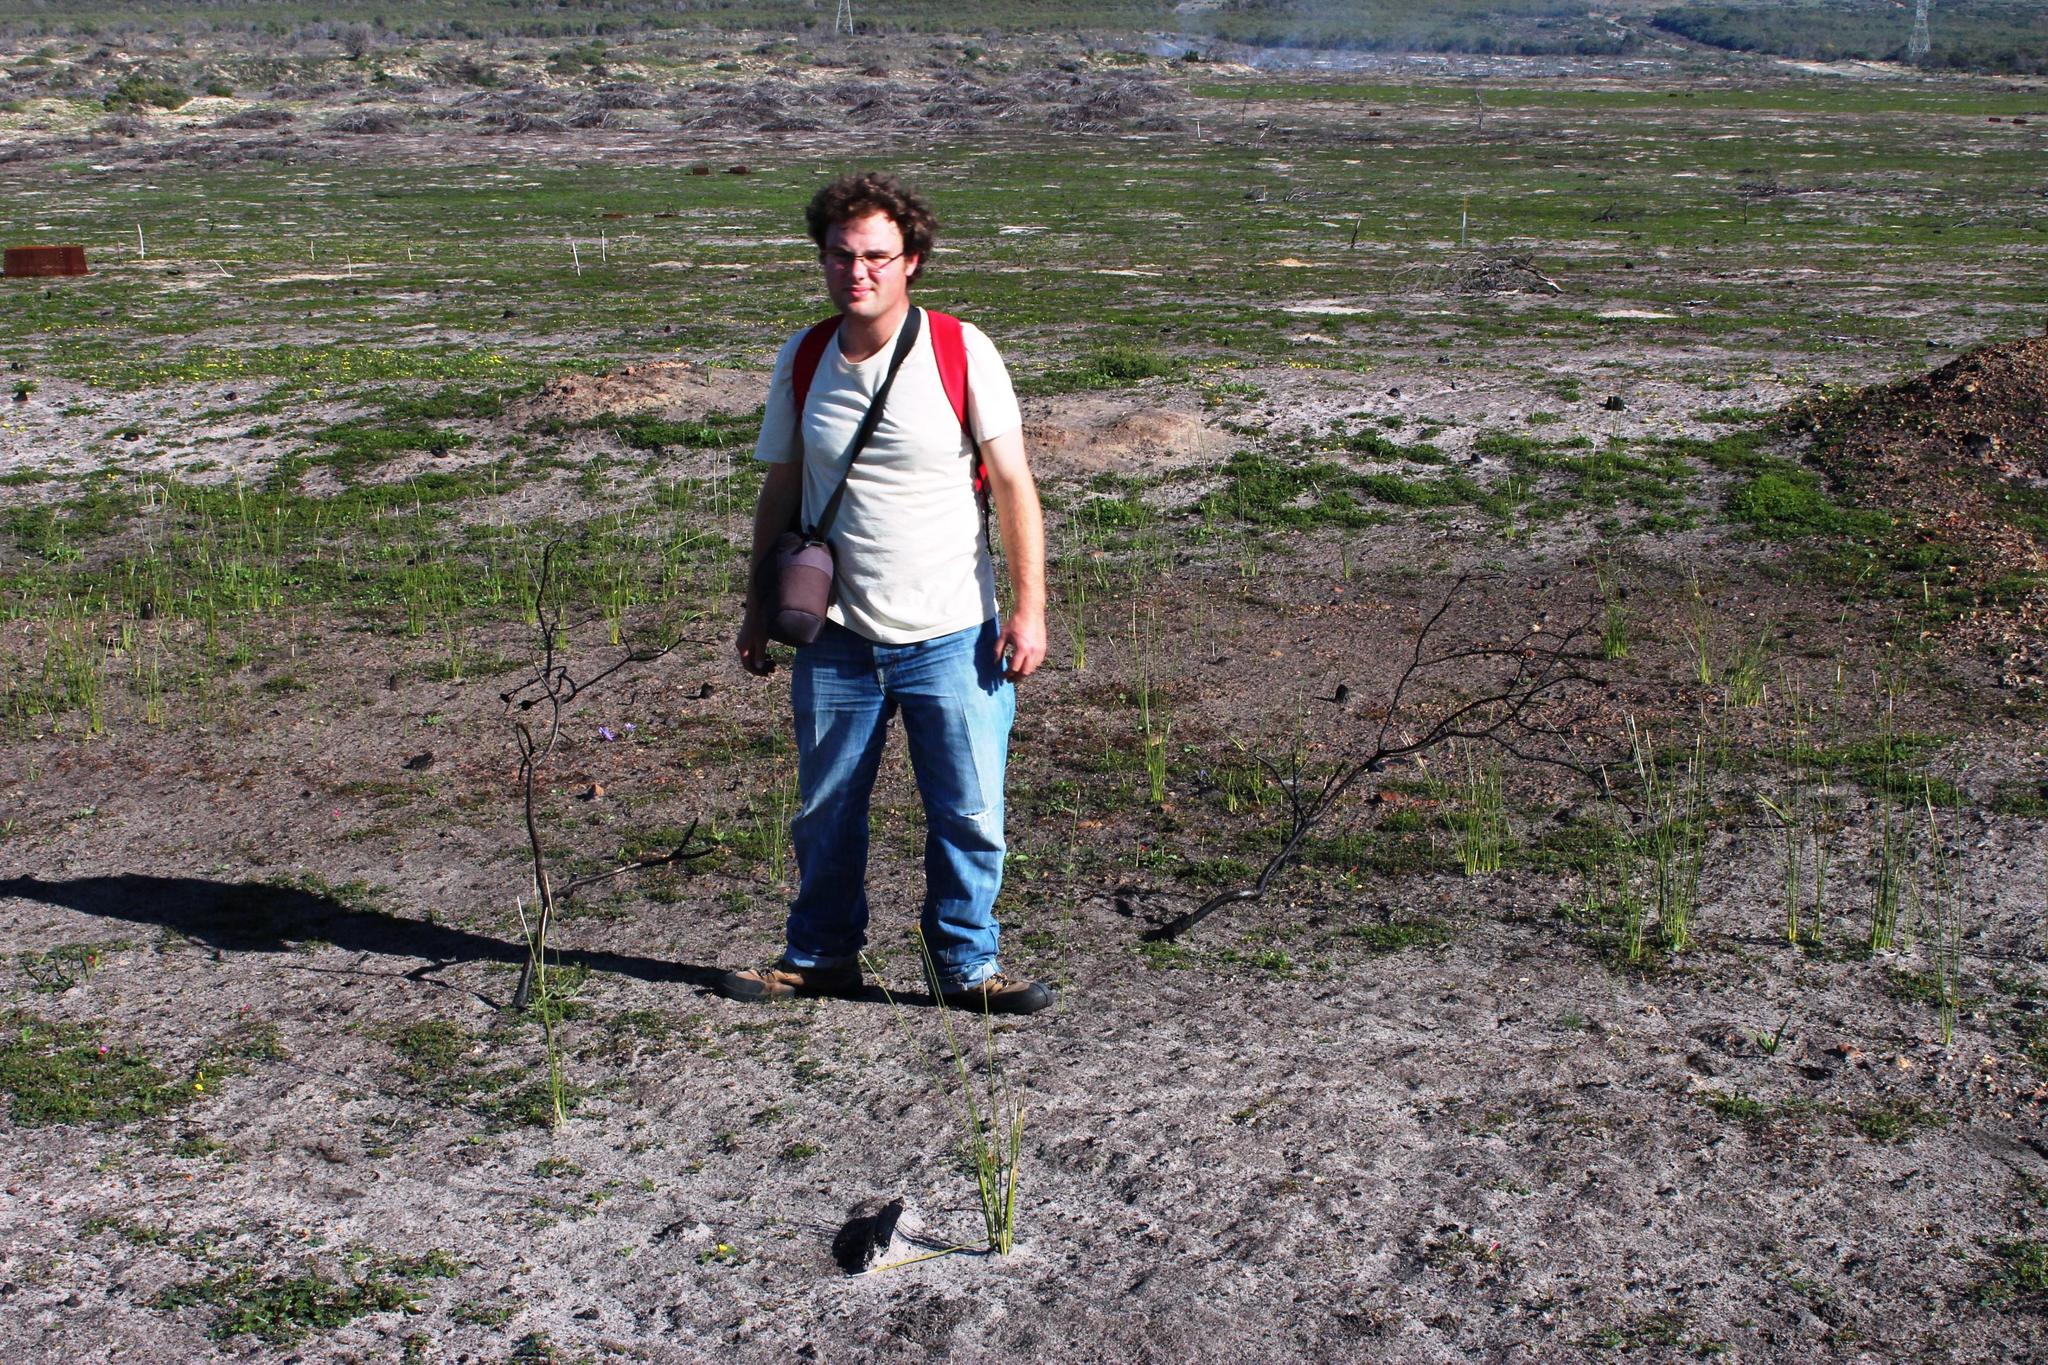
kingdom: Plantae
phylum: Tracheophyta
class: Magnoliopsida
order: Proteales
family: Proteaceae
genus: Protea
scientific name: Protea scolymocephala
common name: Thistle sugarbush
